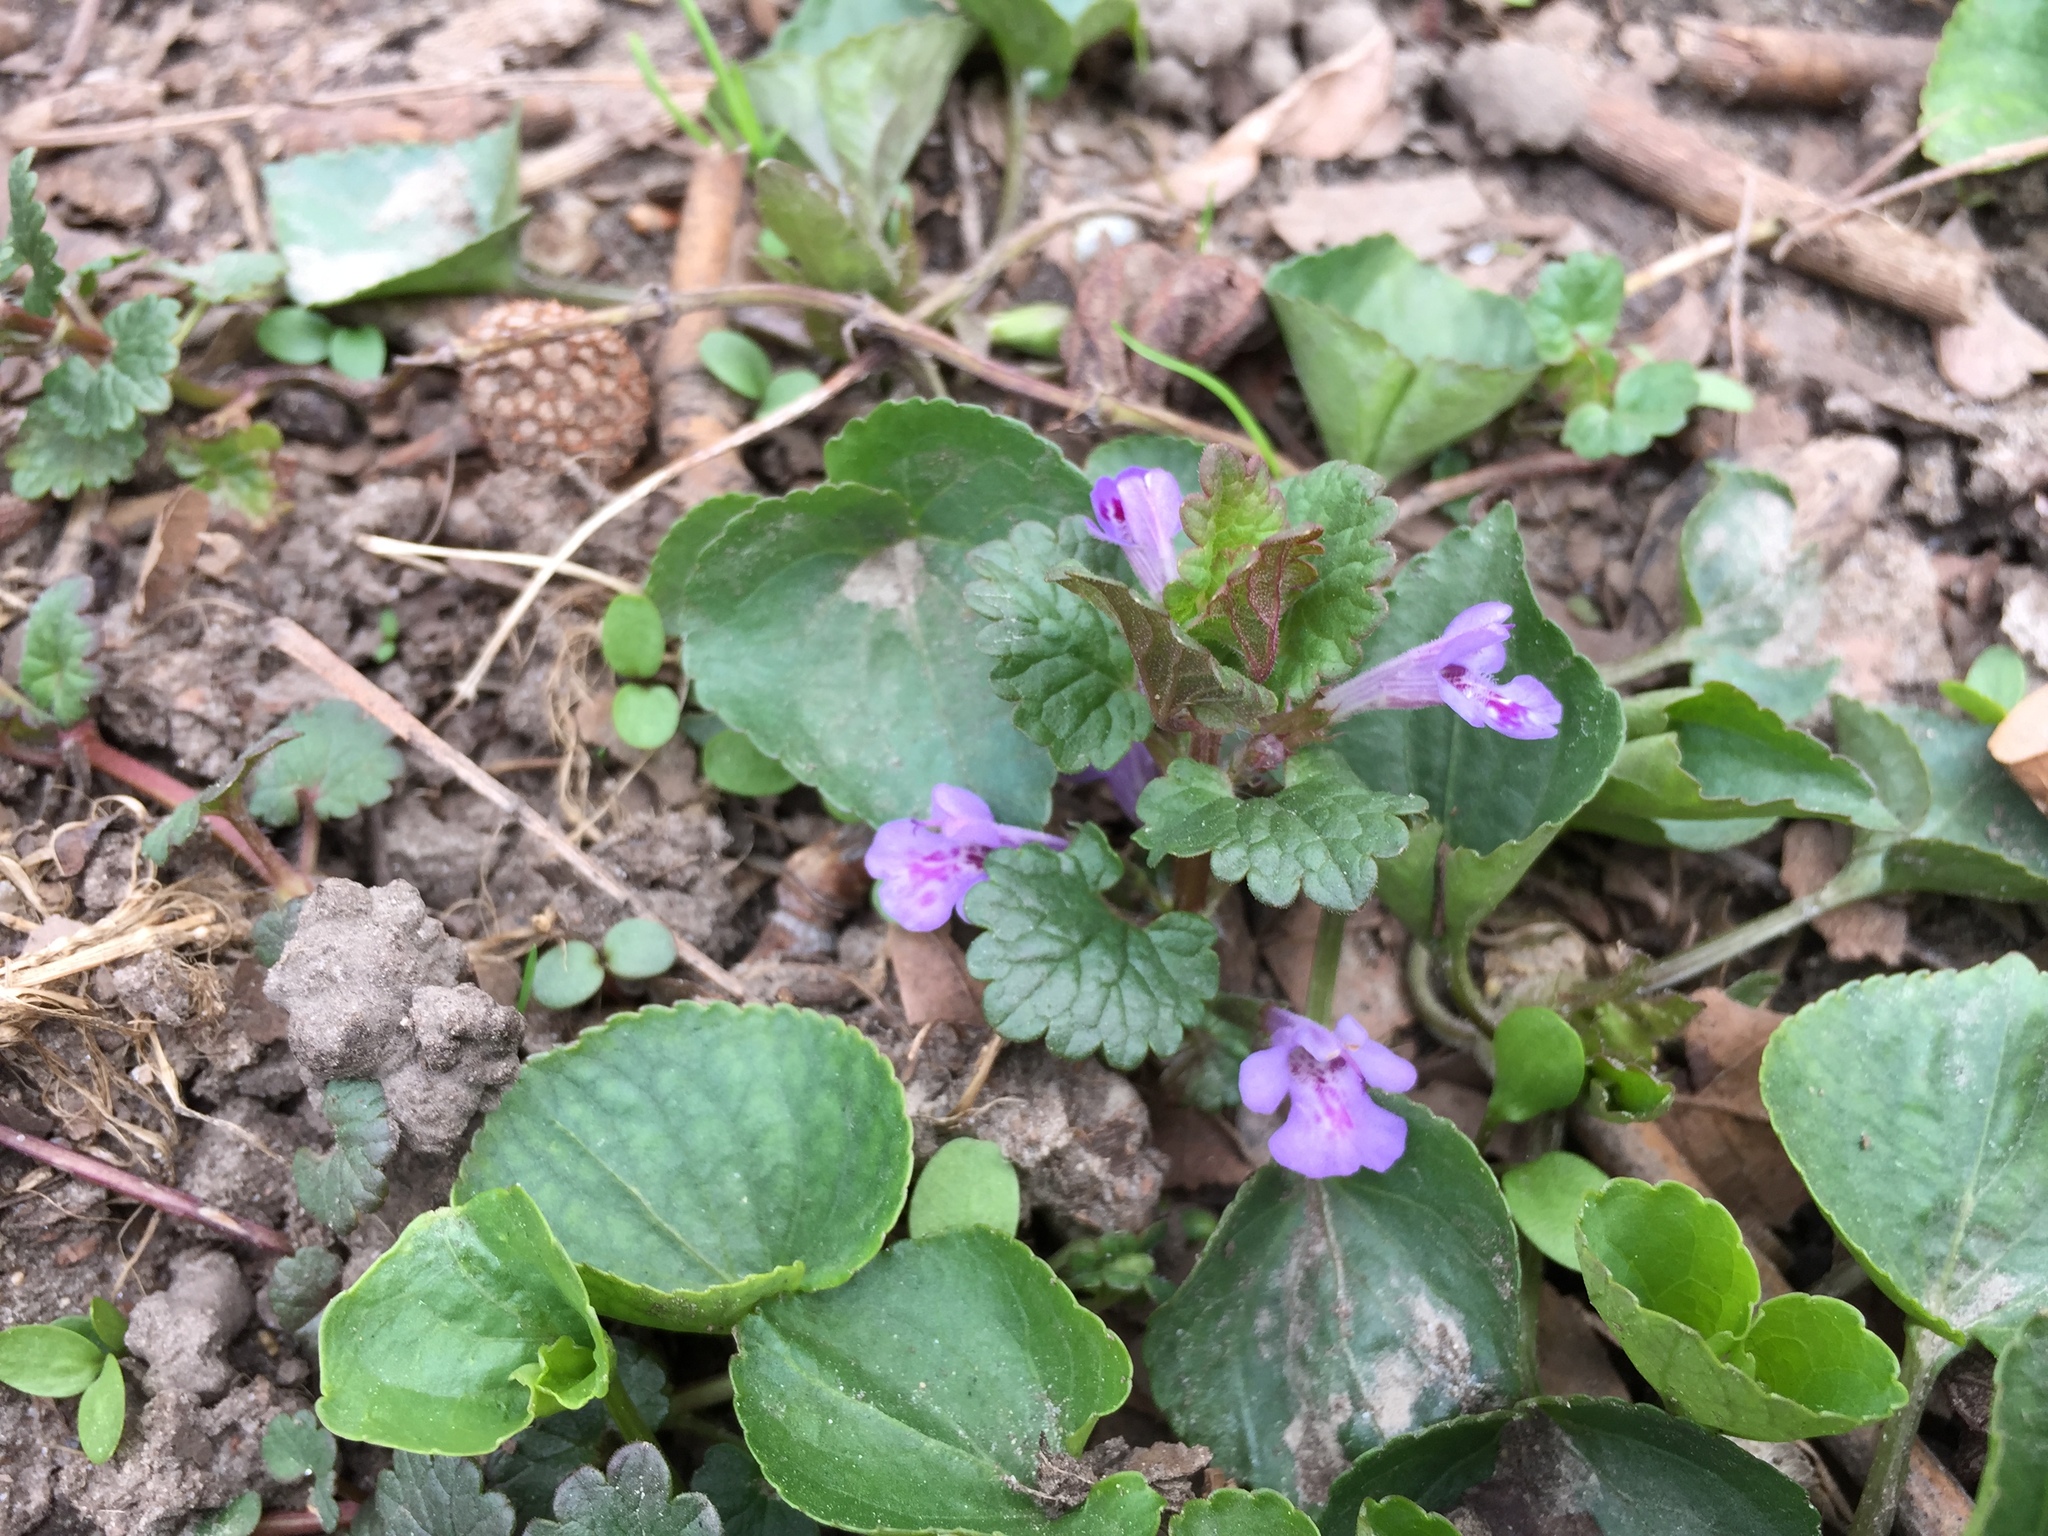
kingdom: Plantae
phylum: Tracheophyta
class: Magnoliopsida
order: Lamiales
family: Lamiaceae
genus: Glechoma
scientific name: Glechoma hederacea
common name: Ground ivy
